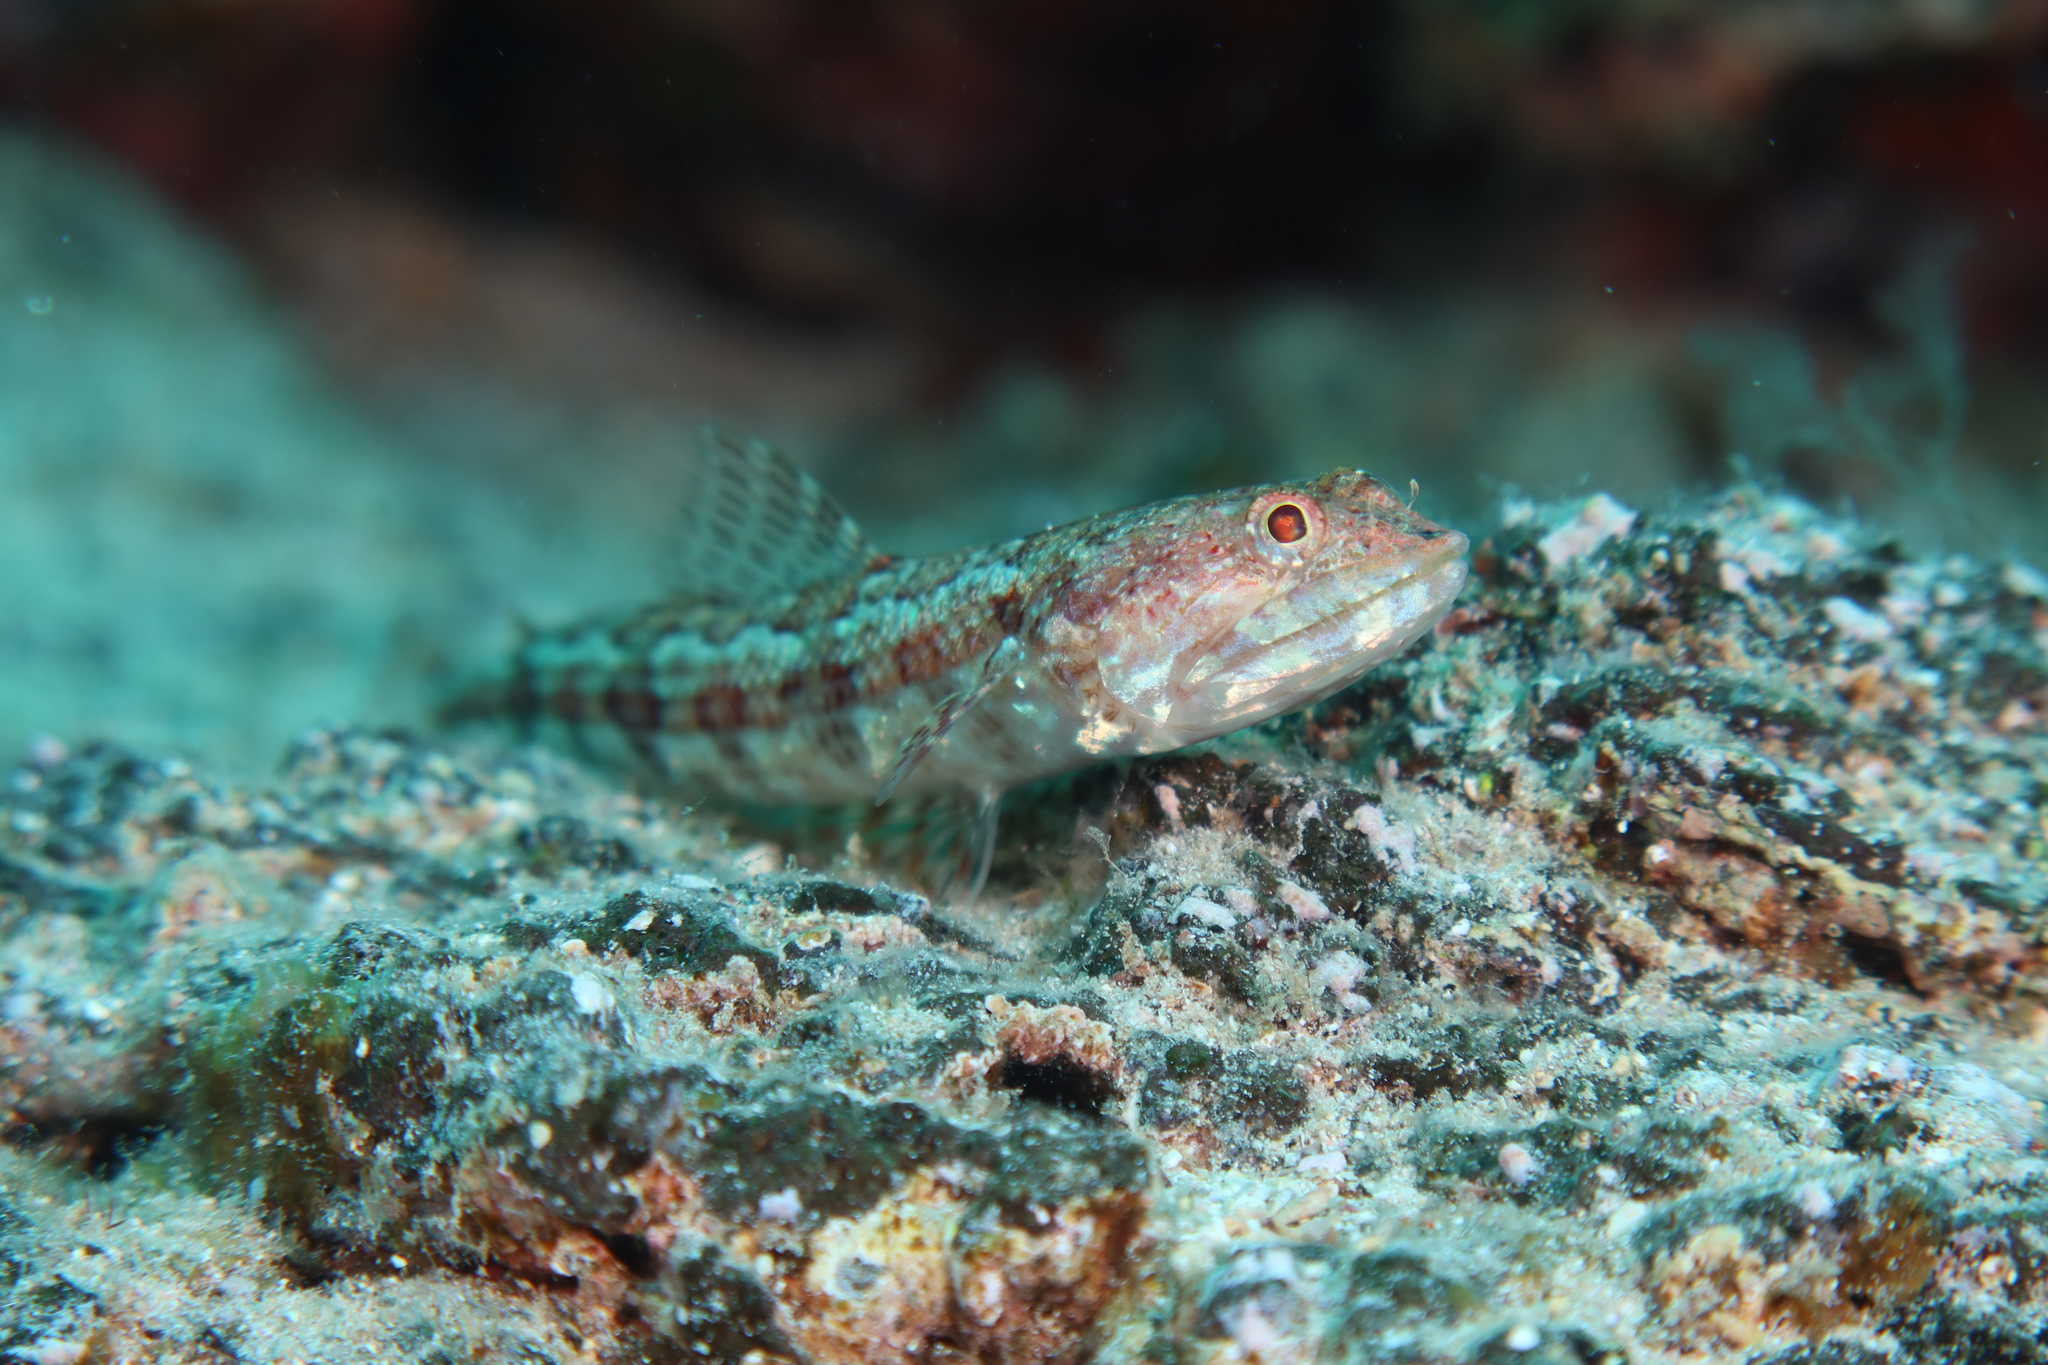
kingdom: Animalia
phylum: Chordata
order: Aulopiformes
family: Synodontidae
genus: Synodus
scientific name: Synodus synodus
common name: Red lizardfish
